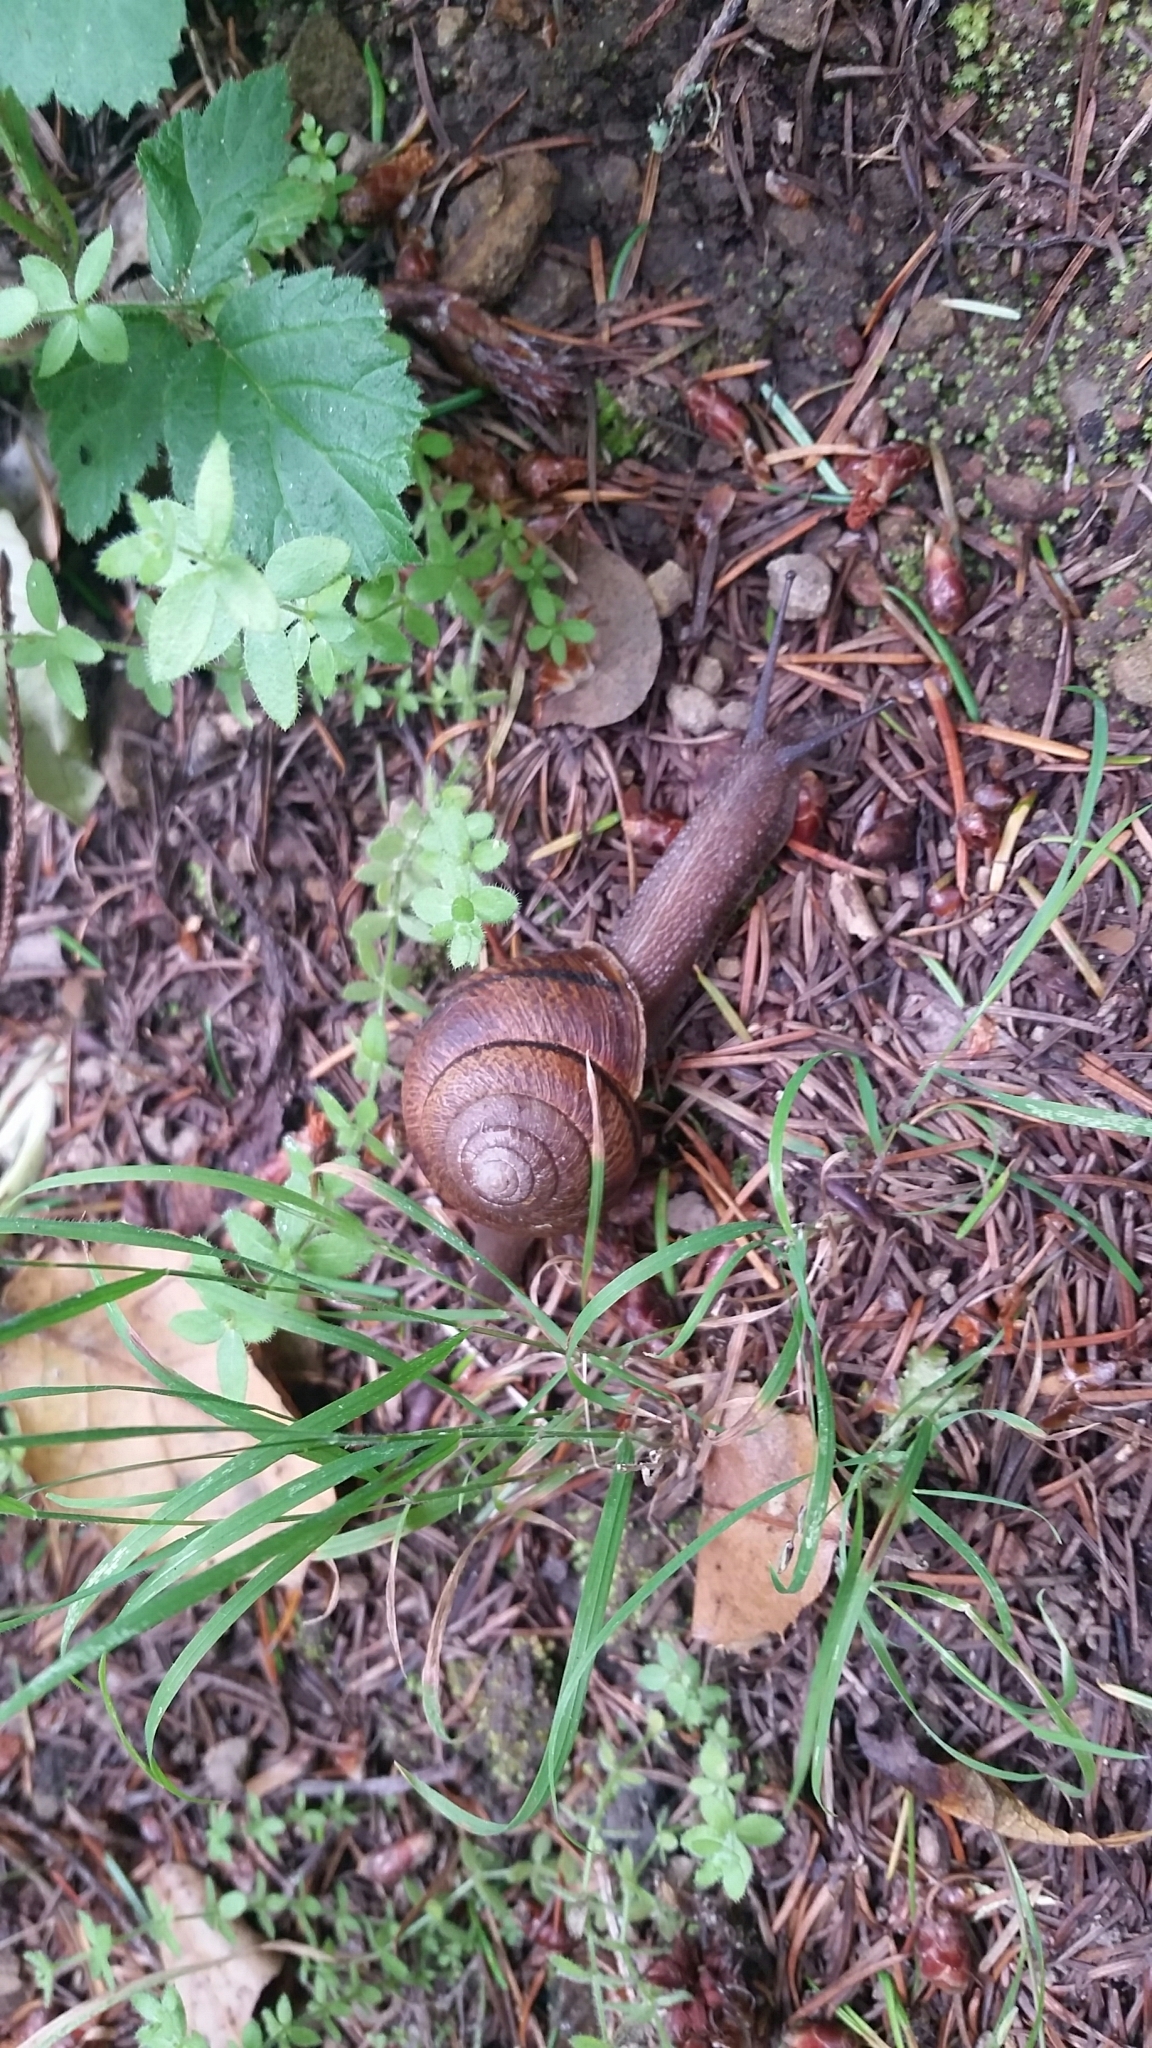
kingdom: Animalia
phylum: Mollusca
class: Gastropoda
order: Stylommatophora
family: Xanthonychidae
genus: Helminthoglypta
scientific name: Helminthoglypta arrosa
